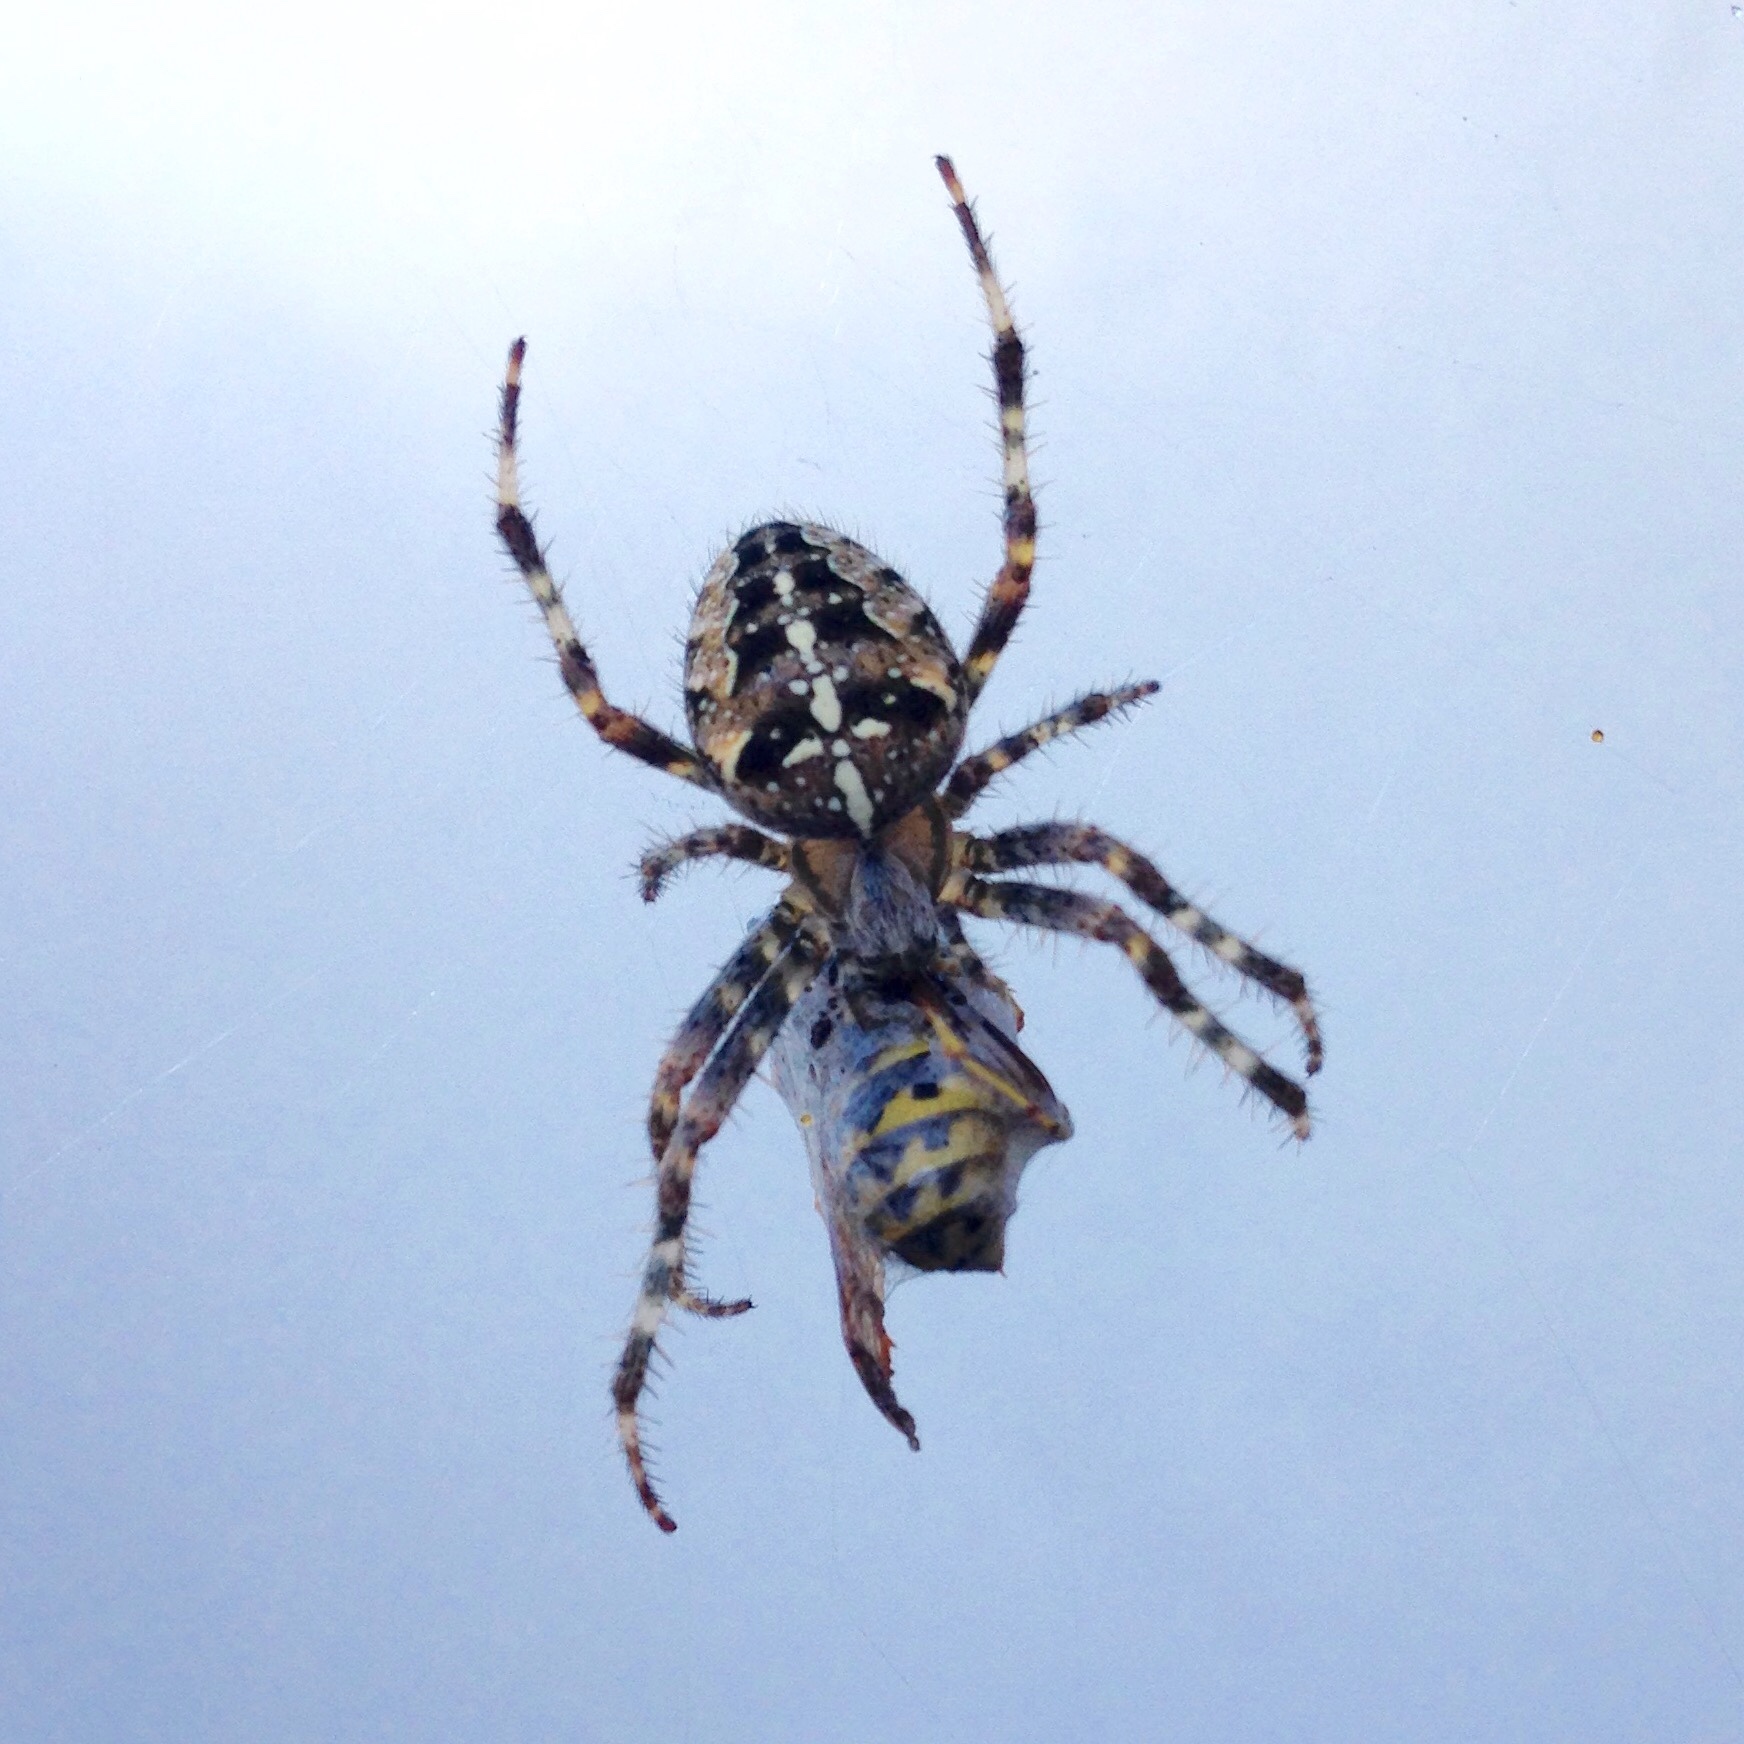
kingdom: Animalia
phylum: Arthropoda
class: Arachnida
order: Araneae
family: Araneidae
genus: Araneus
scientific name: Araneus diadematus
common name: Cross orbweaver
